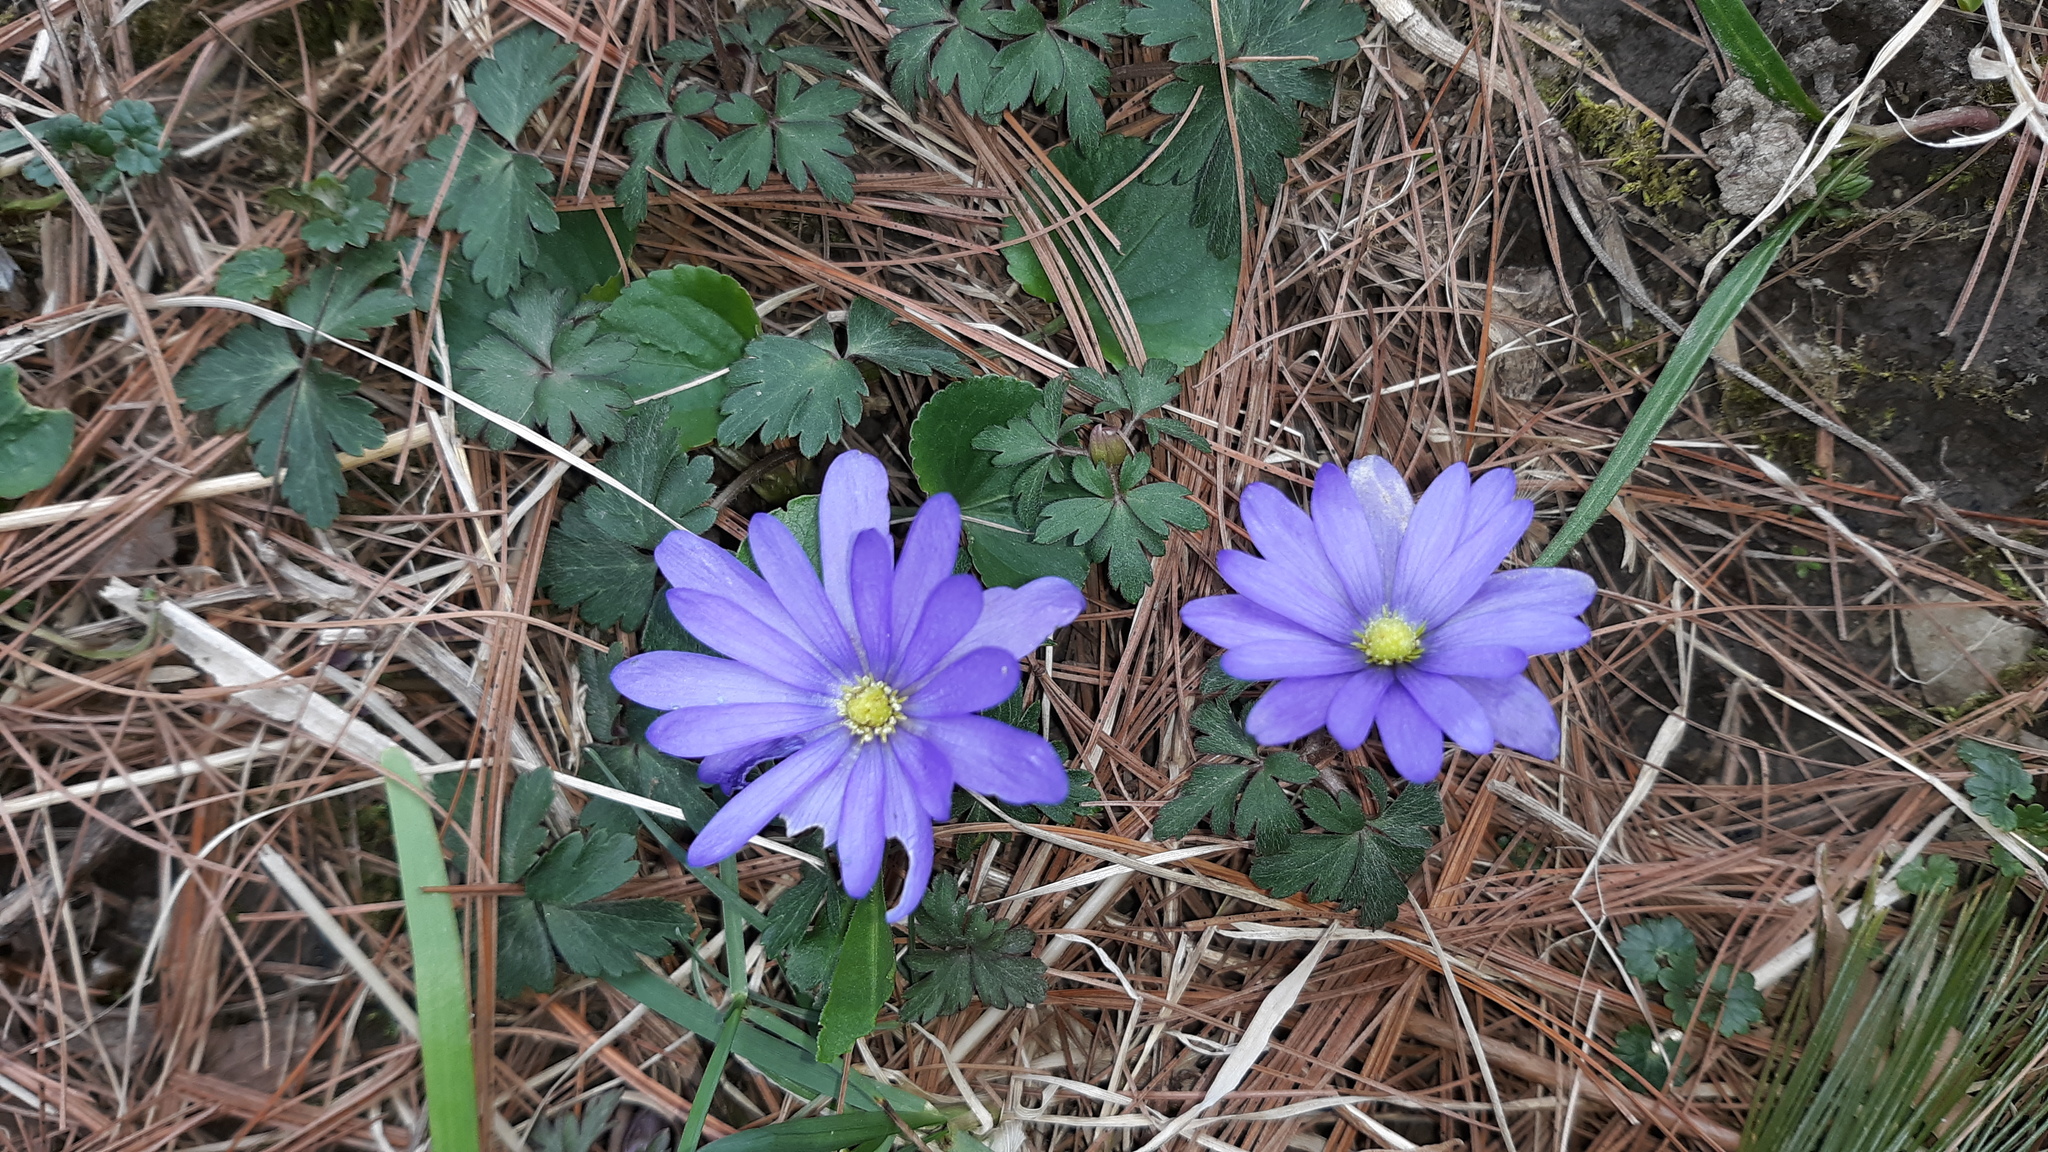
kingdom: Plantae
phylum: Tracheophyta
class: Magnoliopsida
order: Ranunculales
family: Ranunculaceae
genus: Anemone
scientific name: Anemone blanda
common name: Balkan anemone
